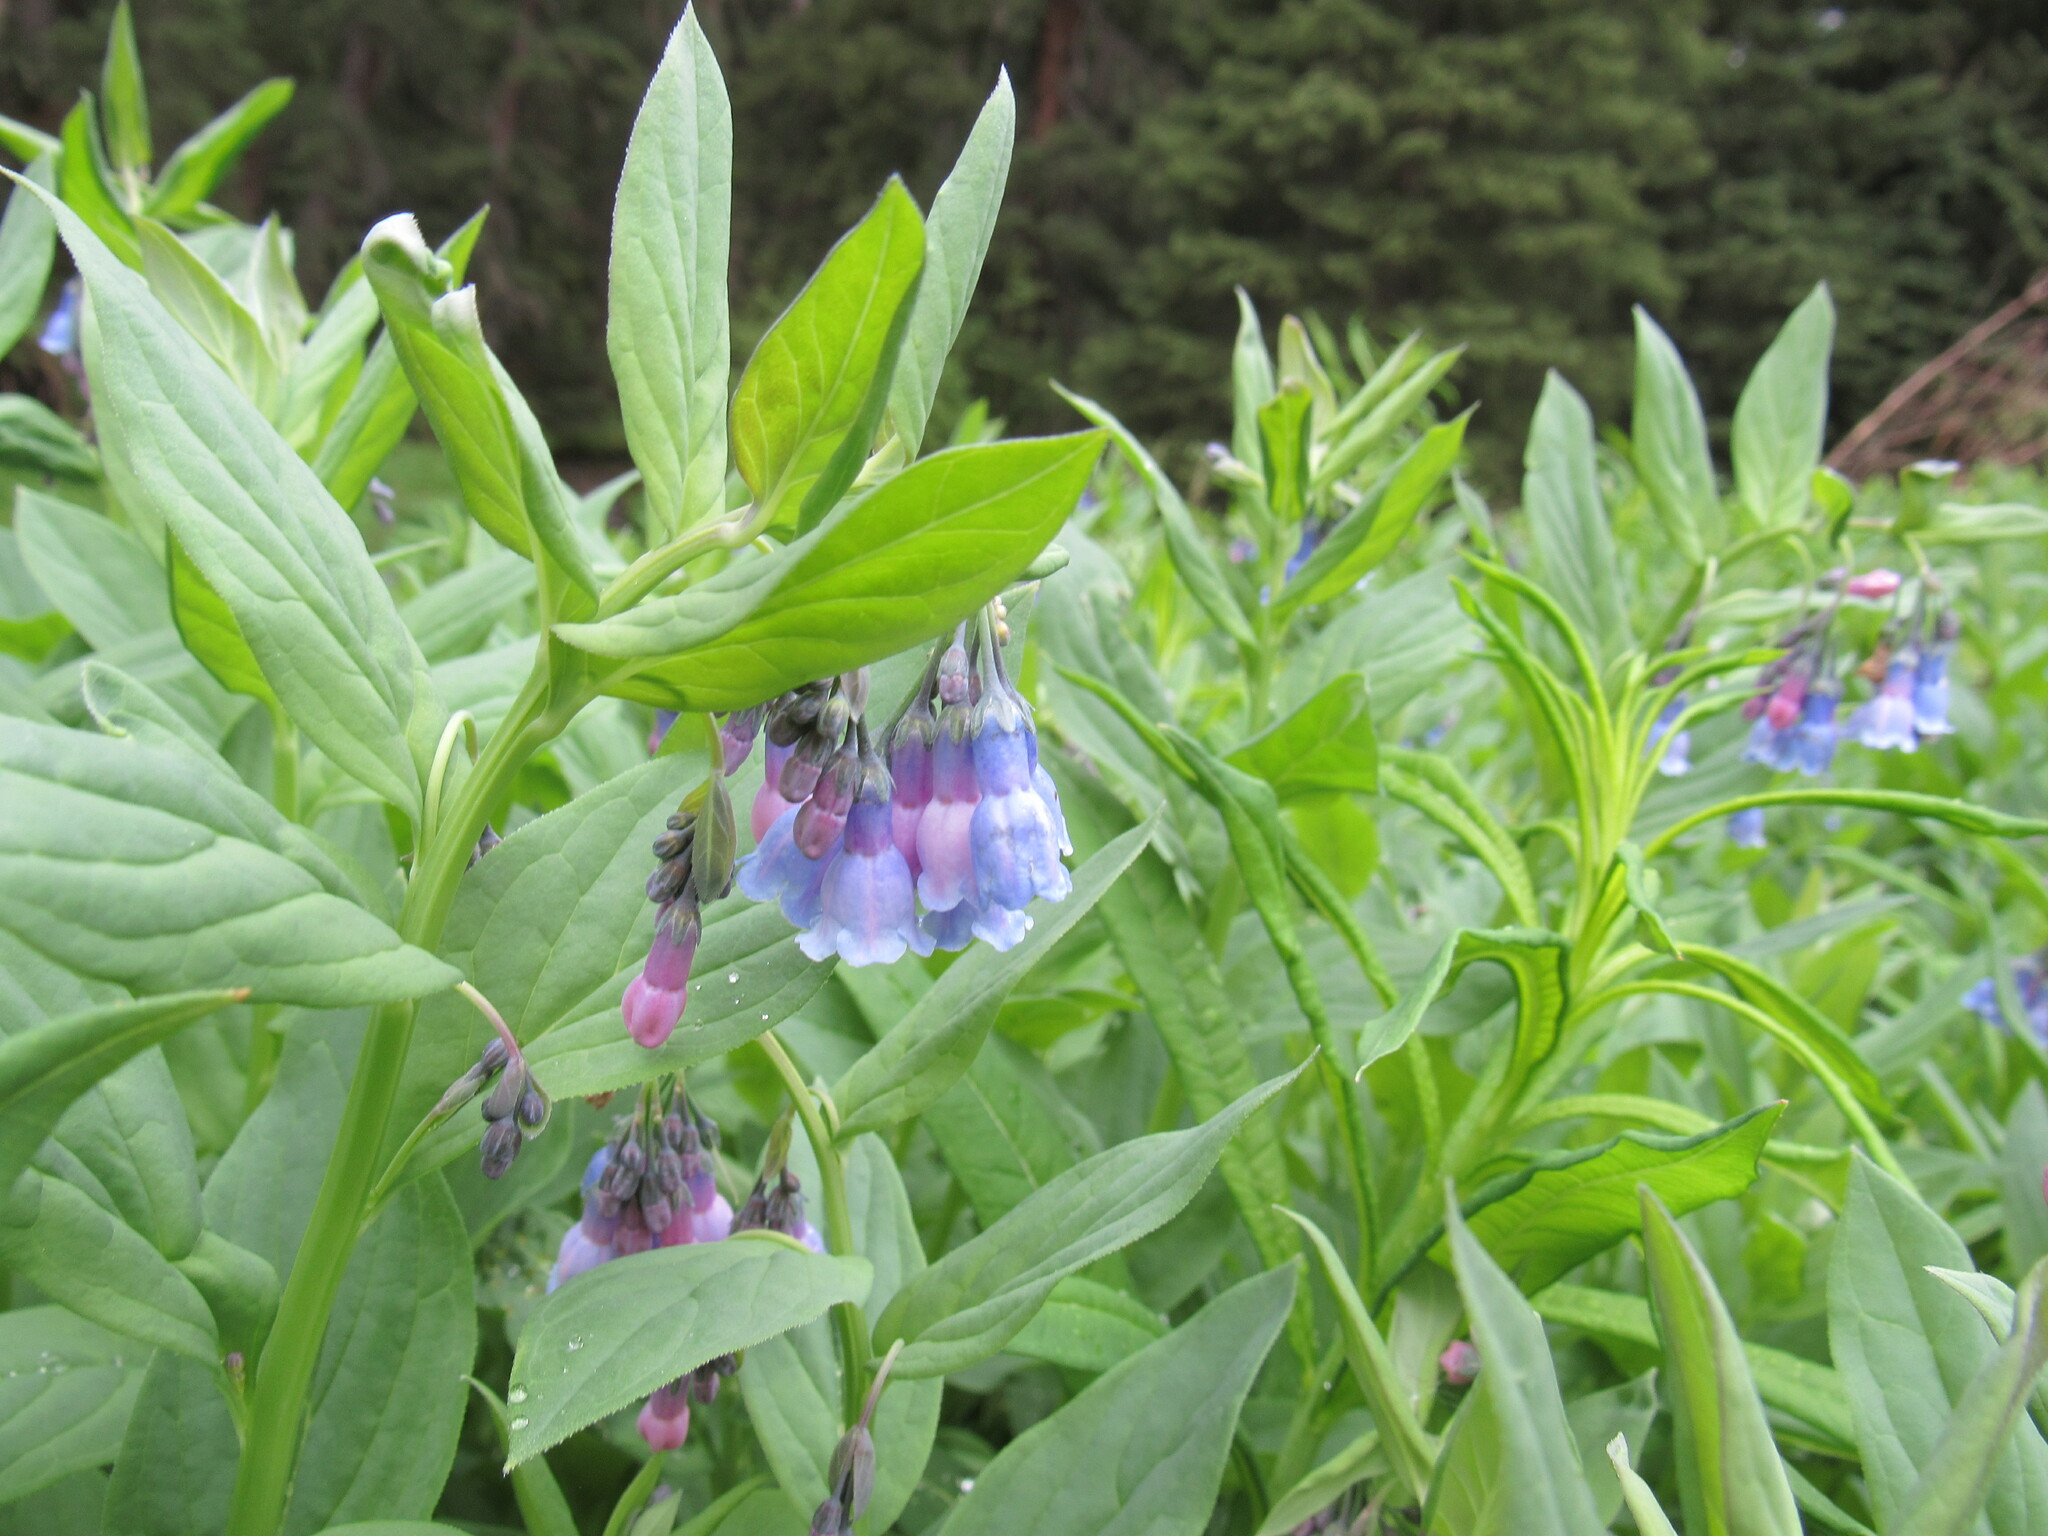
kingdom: Plantae
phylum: Tracheophyta
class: Magnoliopsida
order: Boraginales
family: Boraginaceae
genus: Mertensia
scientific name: Mertensia ciliata
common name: Tall chiming-bells
